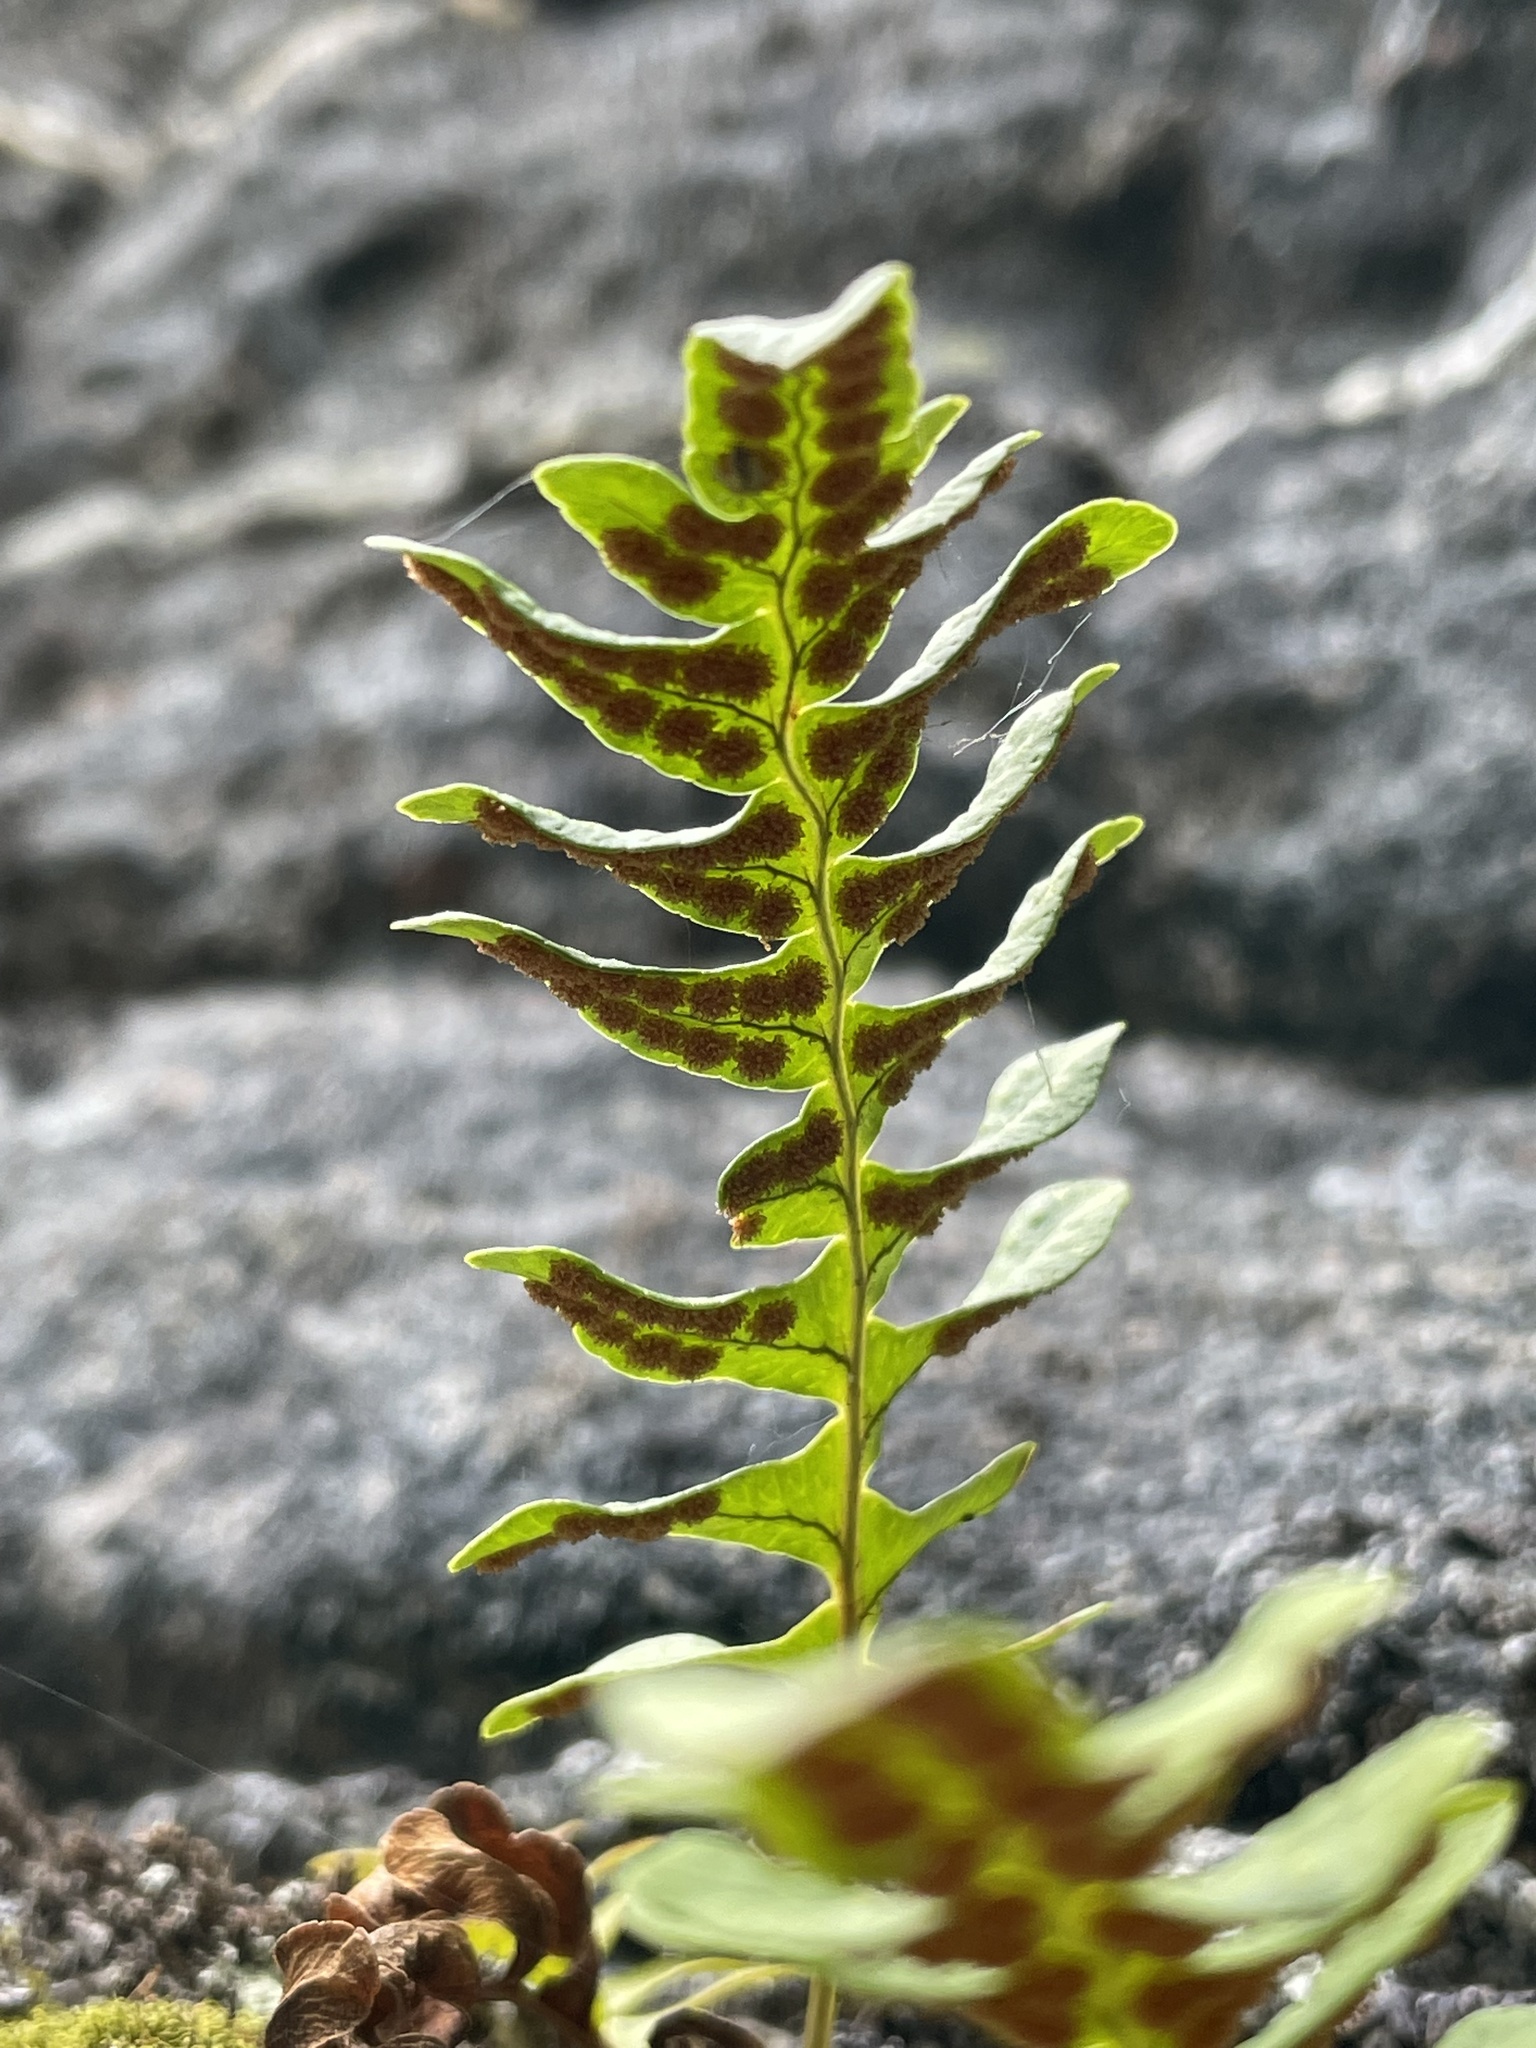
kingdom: Plantae
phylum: Tracheophyta
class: Polypodiopsida
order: Polypodiales
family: Polypodiaceae
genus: Polypodium
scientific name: Polypodium vulgare
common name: Common polypody
